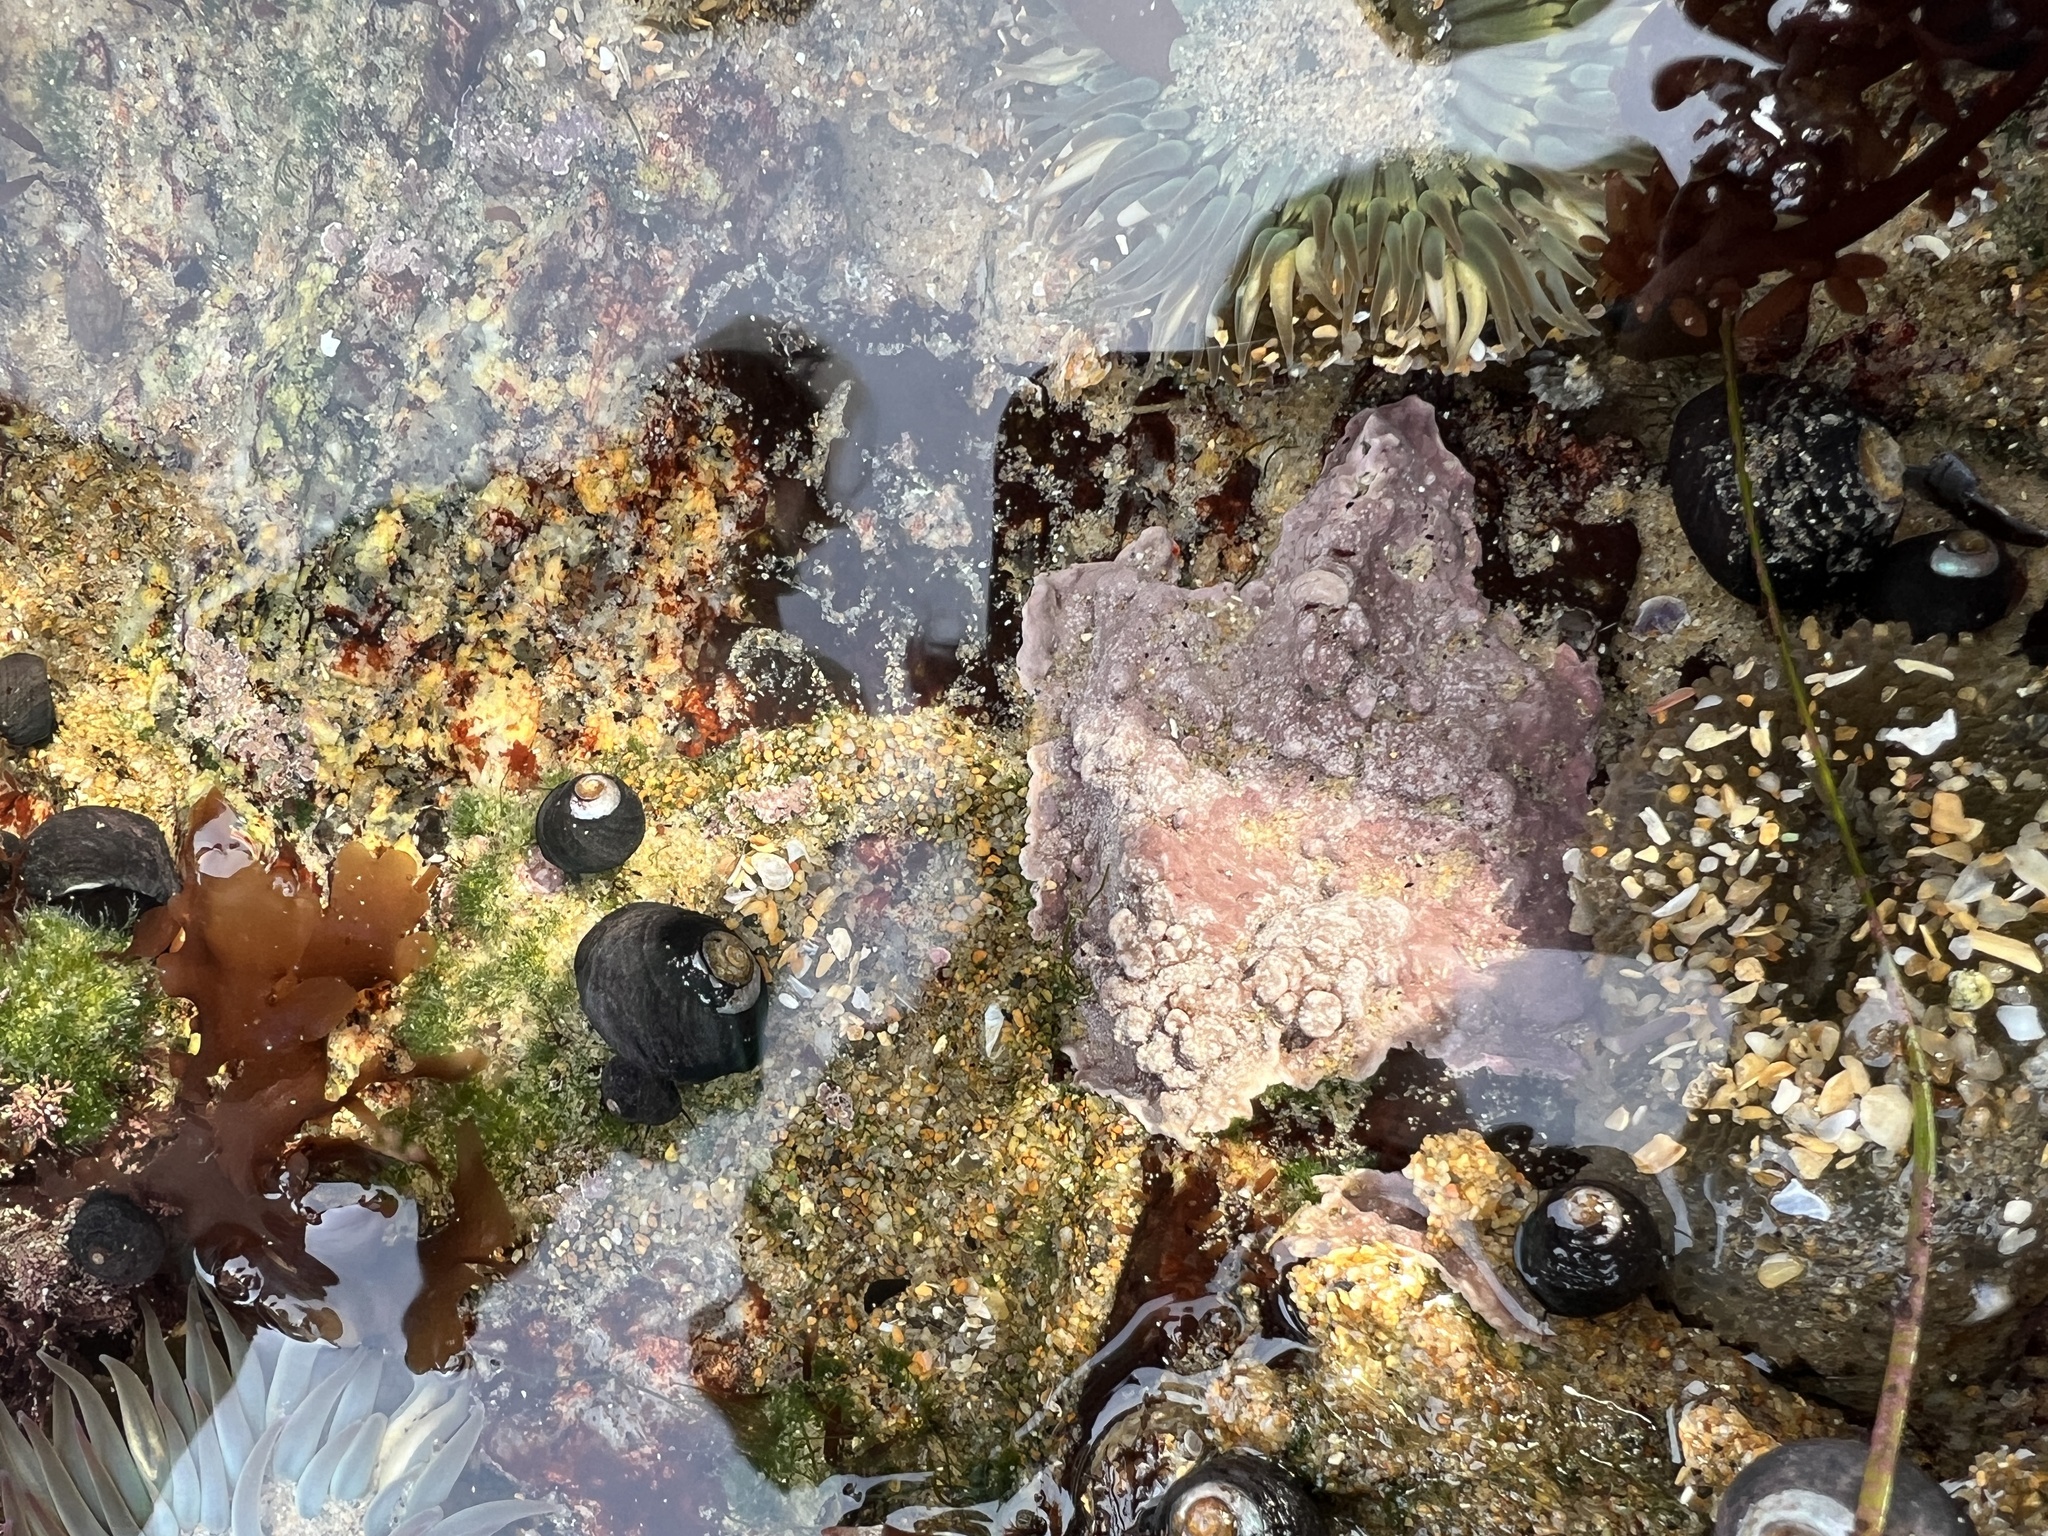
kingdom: Animalia
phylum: Mollusca
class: Gastropoda
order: Trochida
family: Tegulidae
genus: Tegula
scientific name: Tegula funebralis
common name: Black tegula
